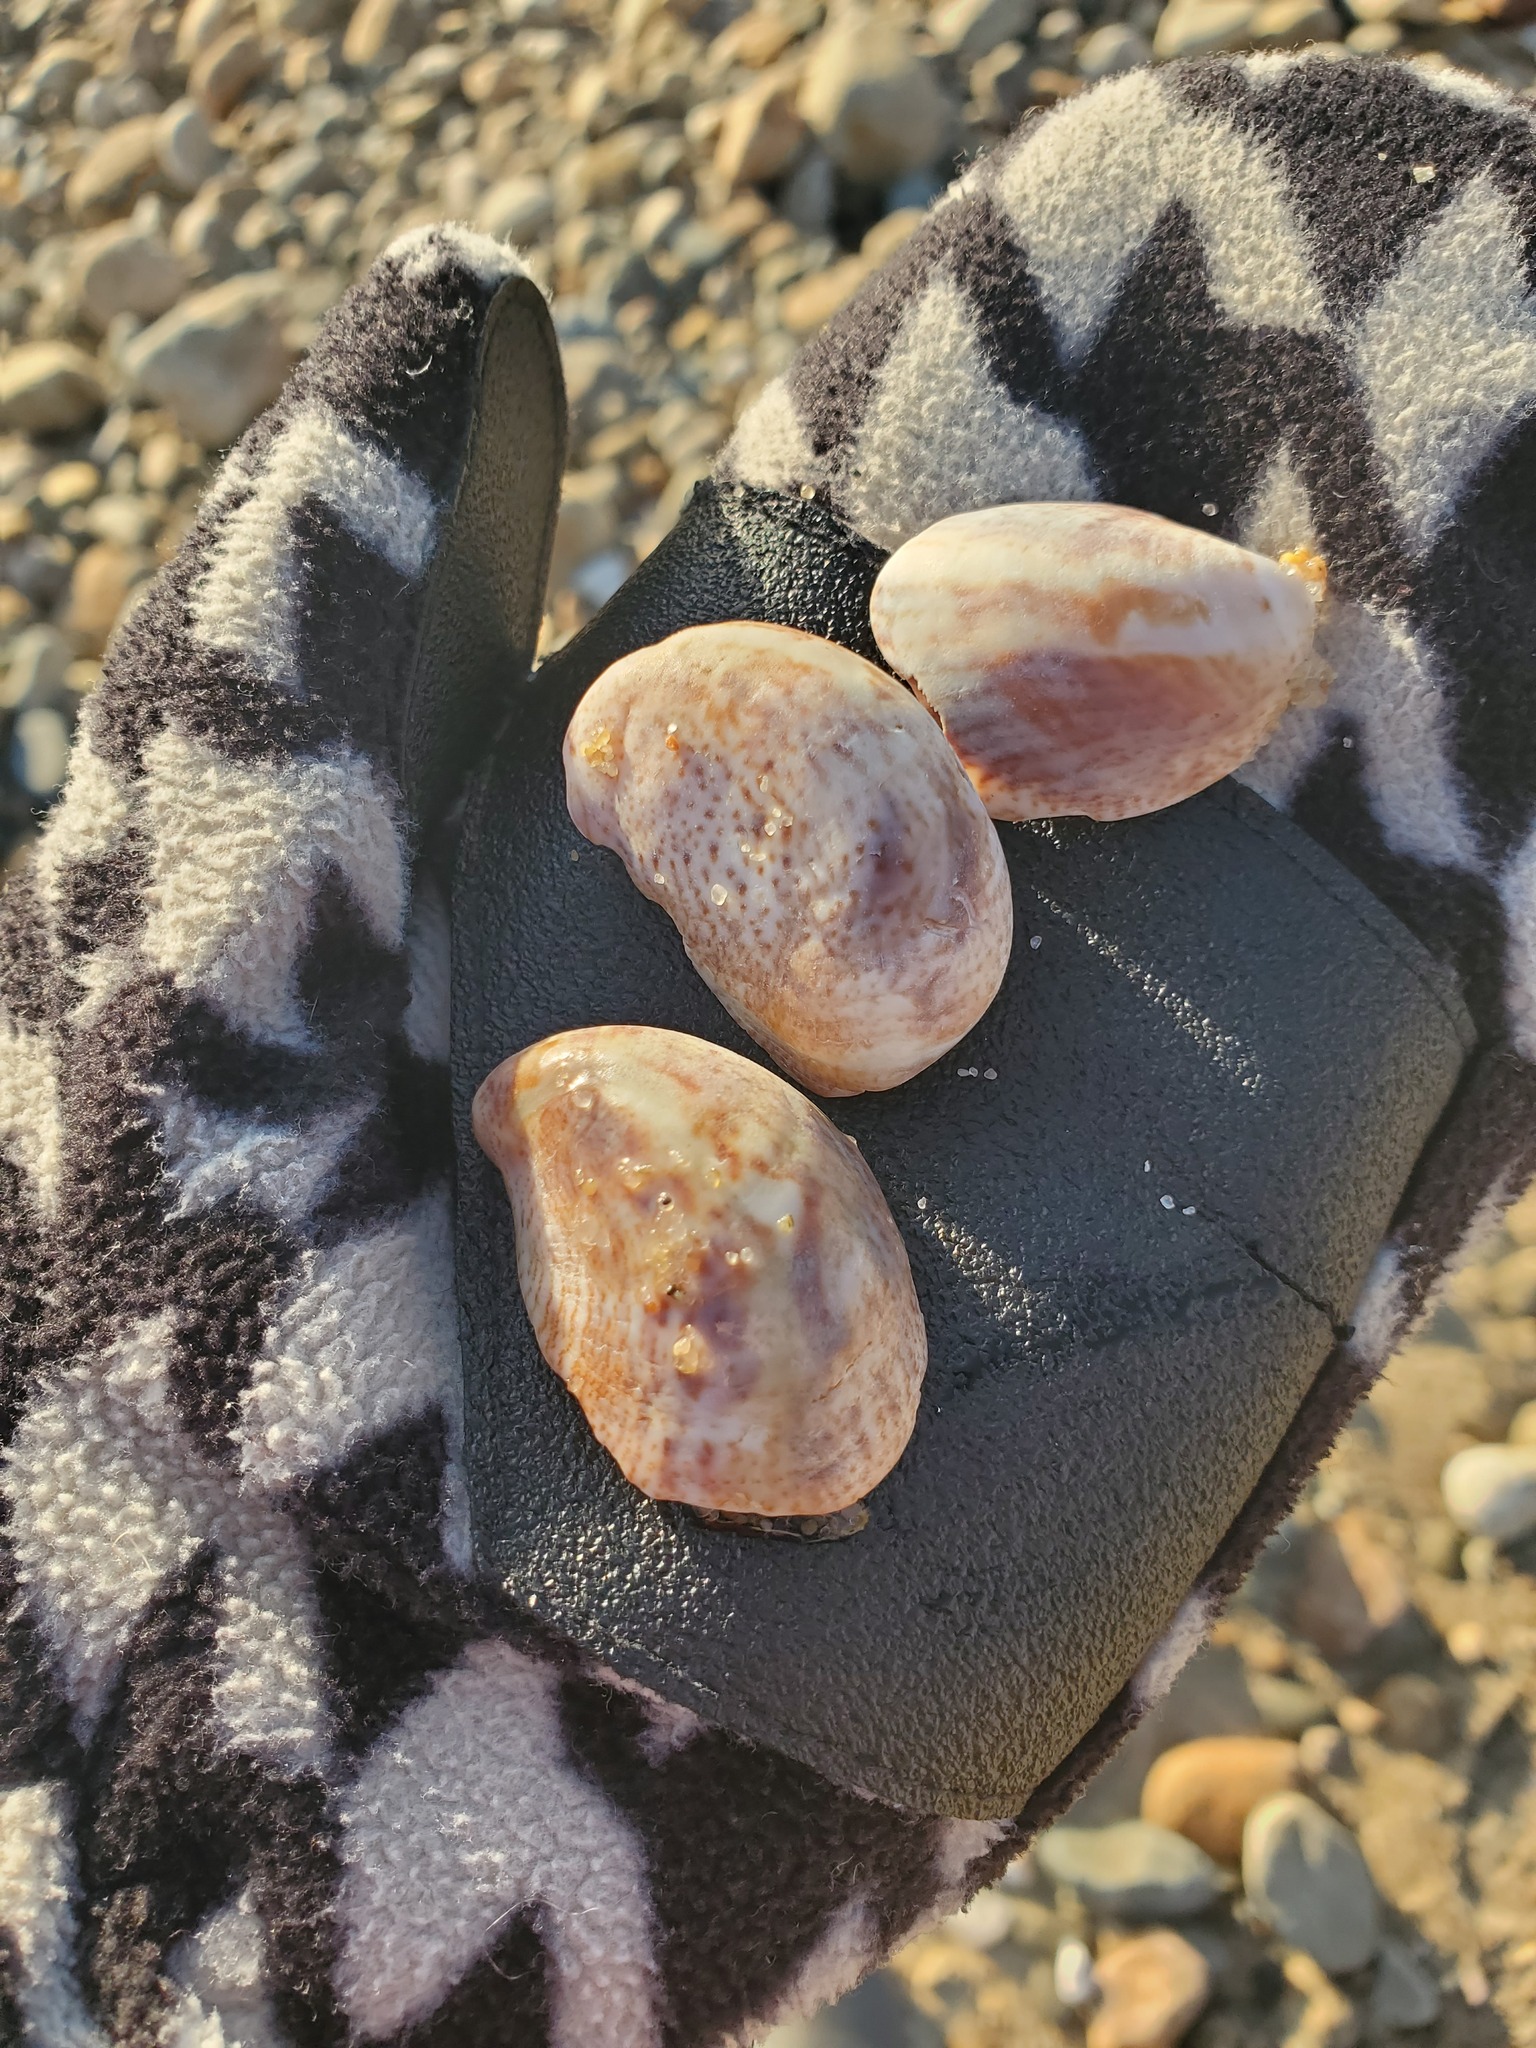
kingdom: Animalia
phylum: Mollusca
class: Gastropoda
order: Littorinimorpha
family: Calyptraeidae
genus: Crepidula
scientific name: Crepidula fornicata
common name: Slipper limpet
